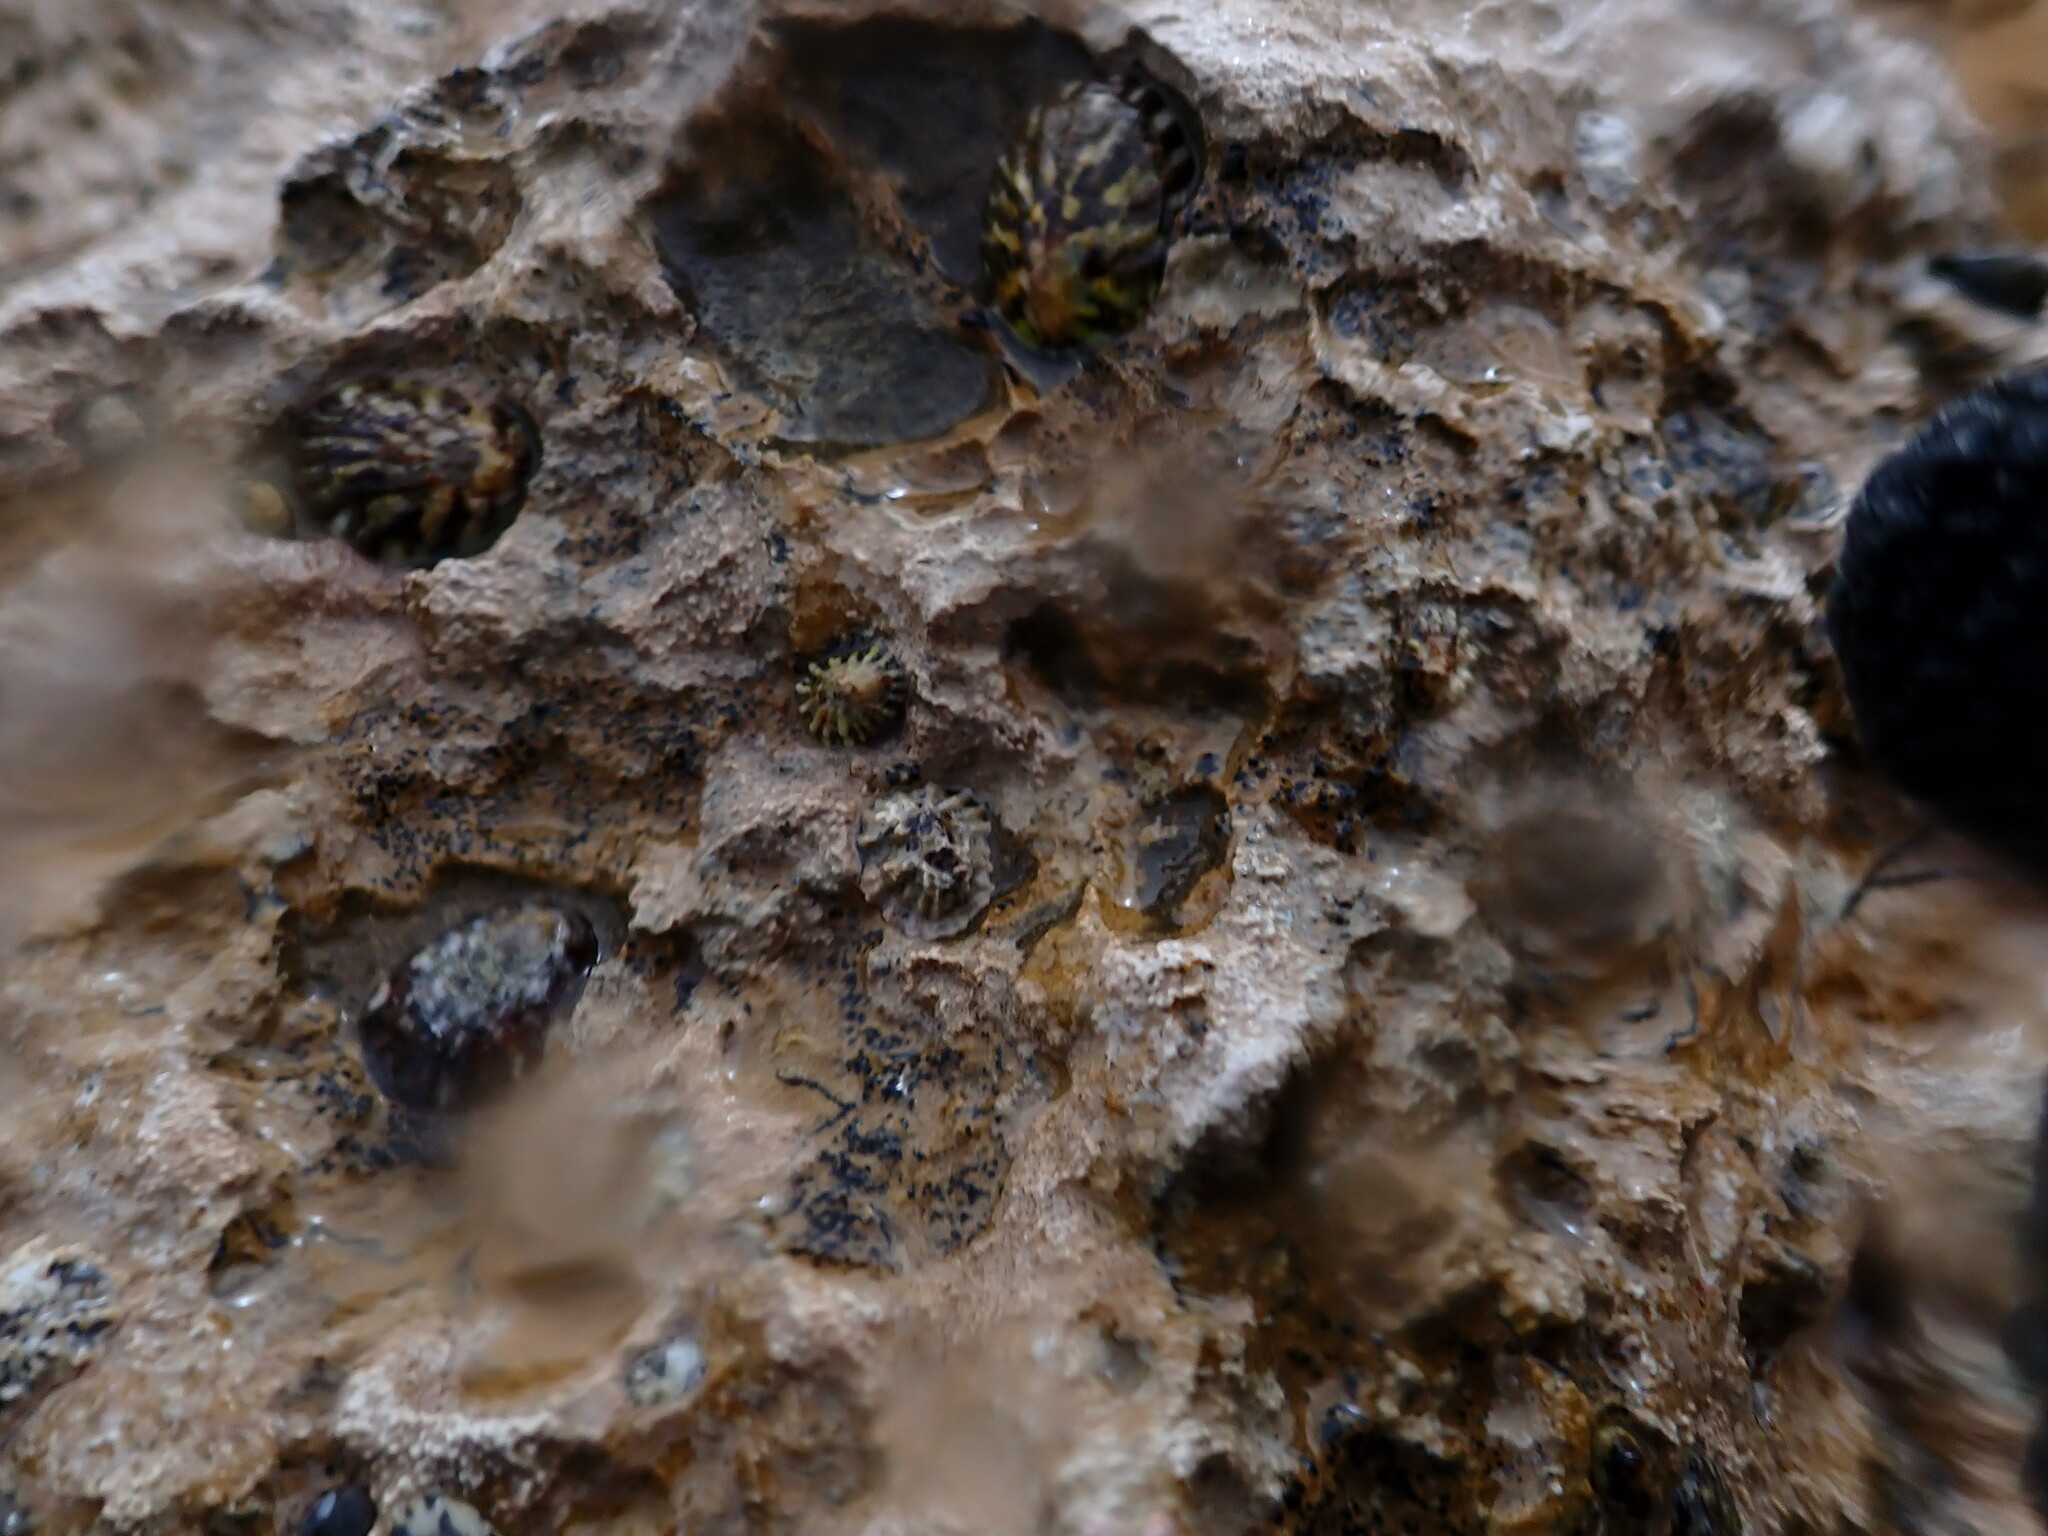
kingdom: Animalia
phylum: Mollusca
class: Gastropoda
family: Nacellidae
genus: Cellana
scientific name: Cellana radians
